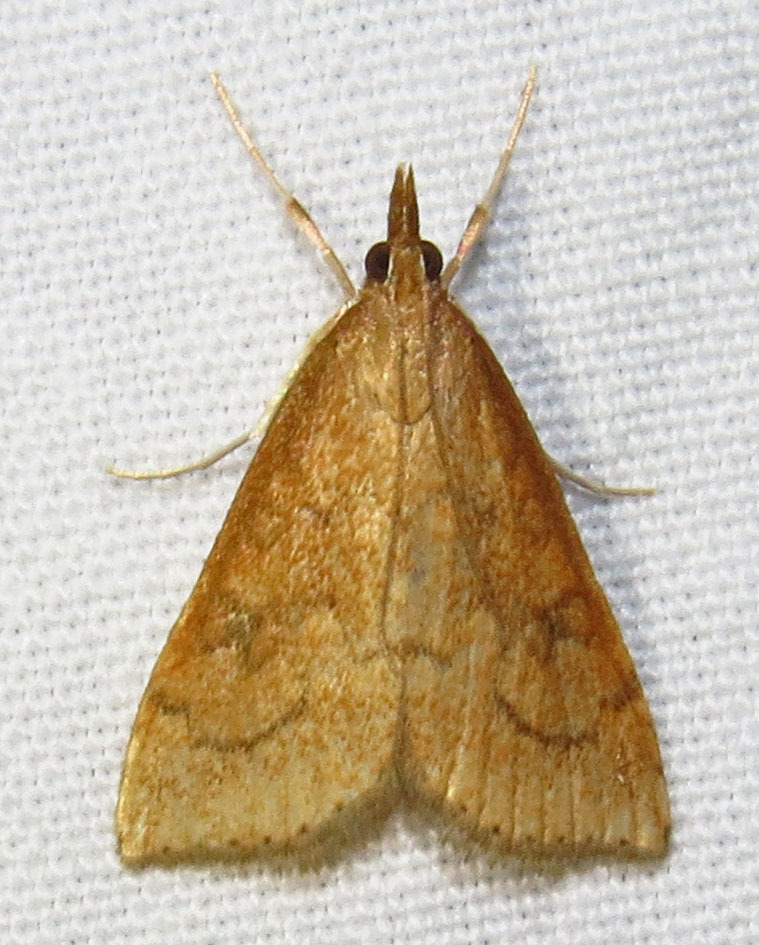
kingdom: Animalia
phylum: Arthropoda
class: Insecta
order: Lepidoptera
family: Crambidae
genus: Udea
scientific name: Udea rubigalis
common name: Celery leaftier moth
